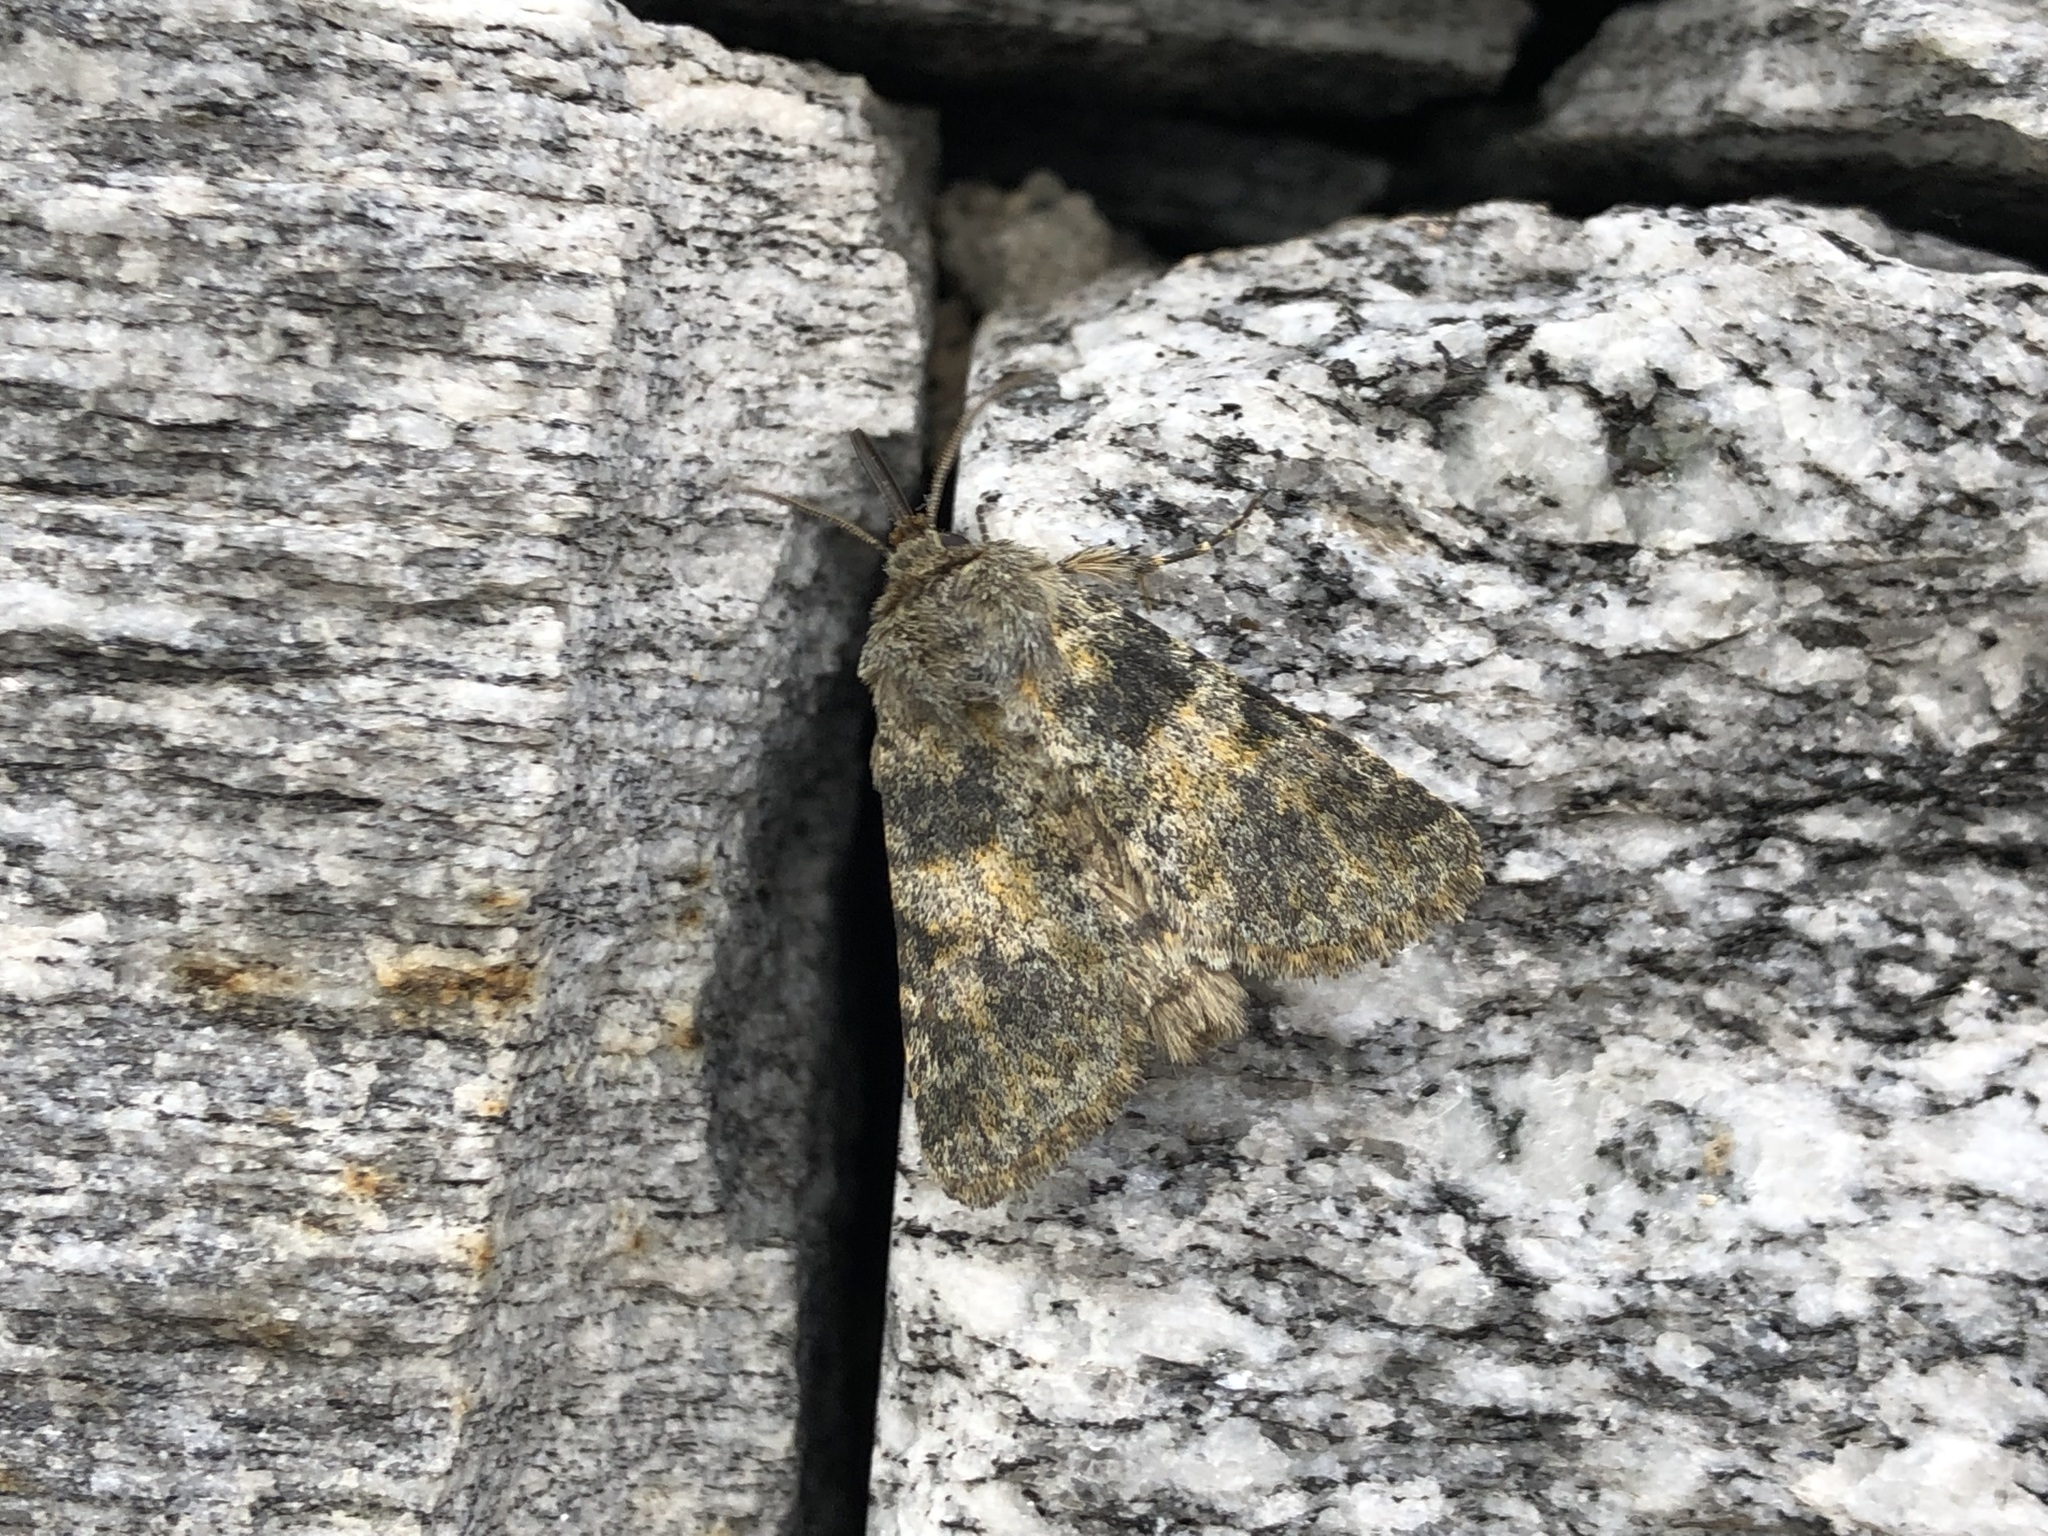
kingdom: Animalia
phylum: Arthropoda
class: Insecta
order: Lepidoptera
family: Noctuidae
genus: Hadena
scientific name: Hadena caesia
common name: Grey
